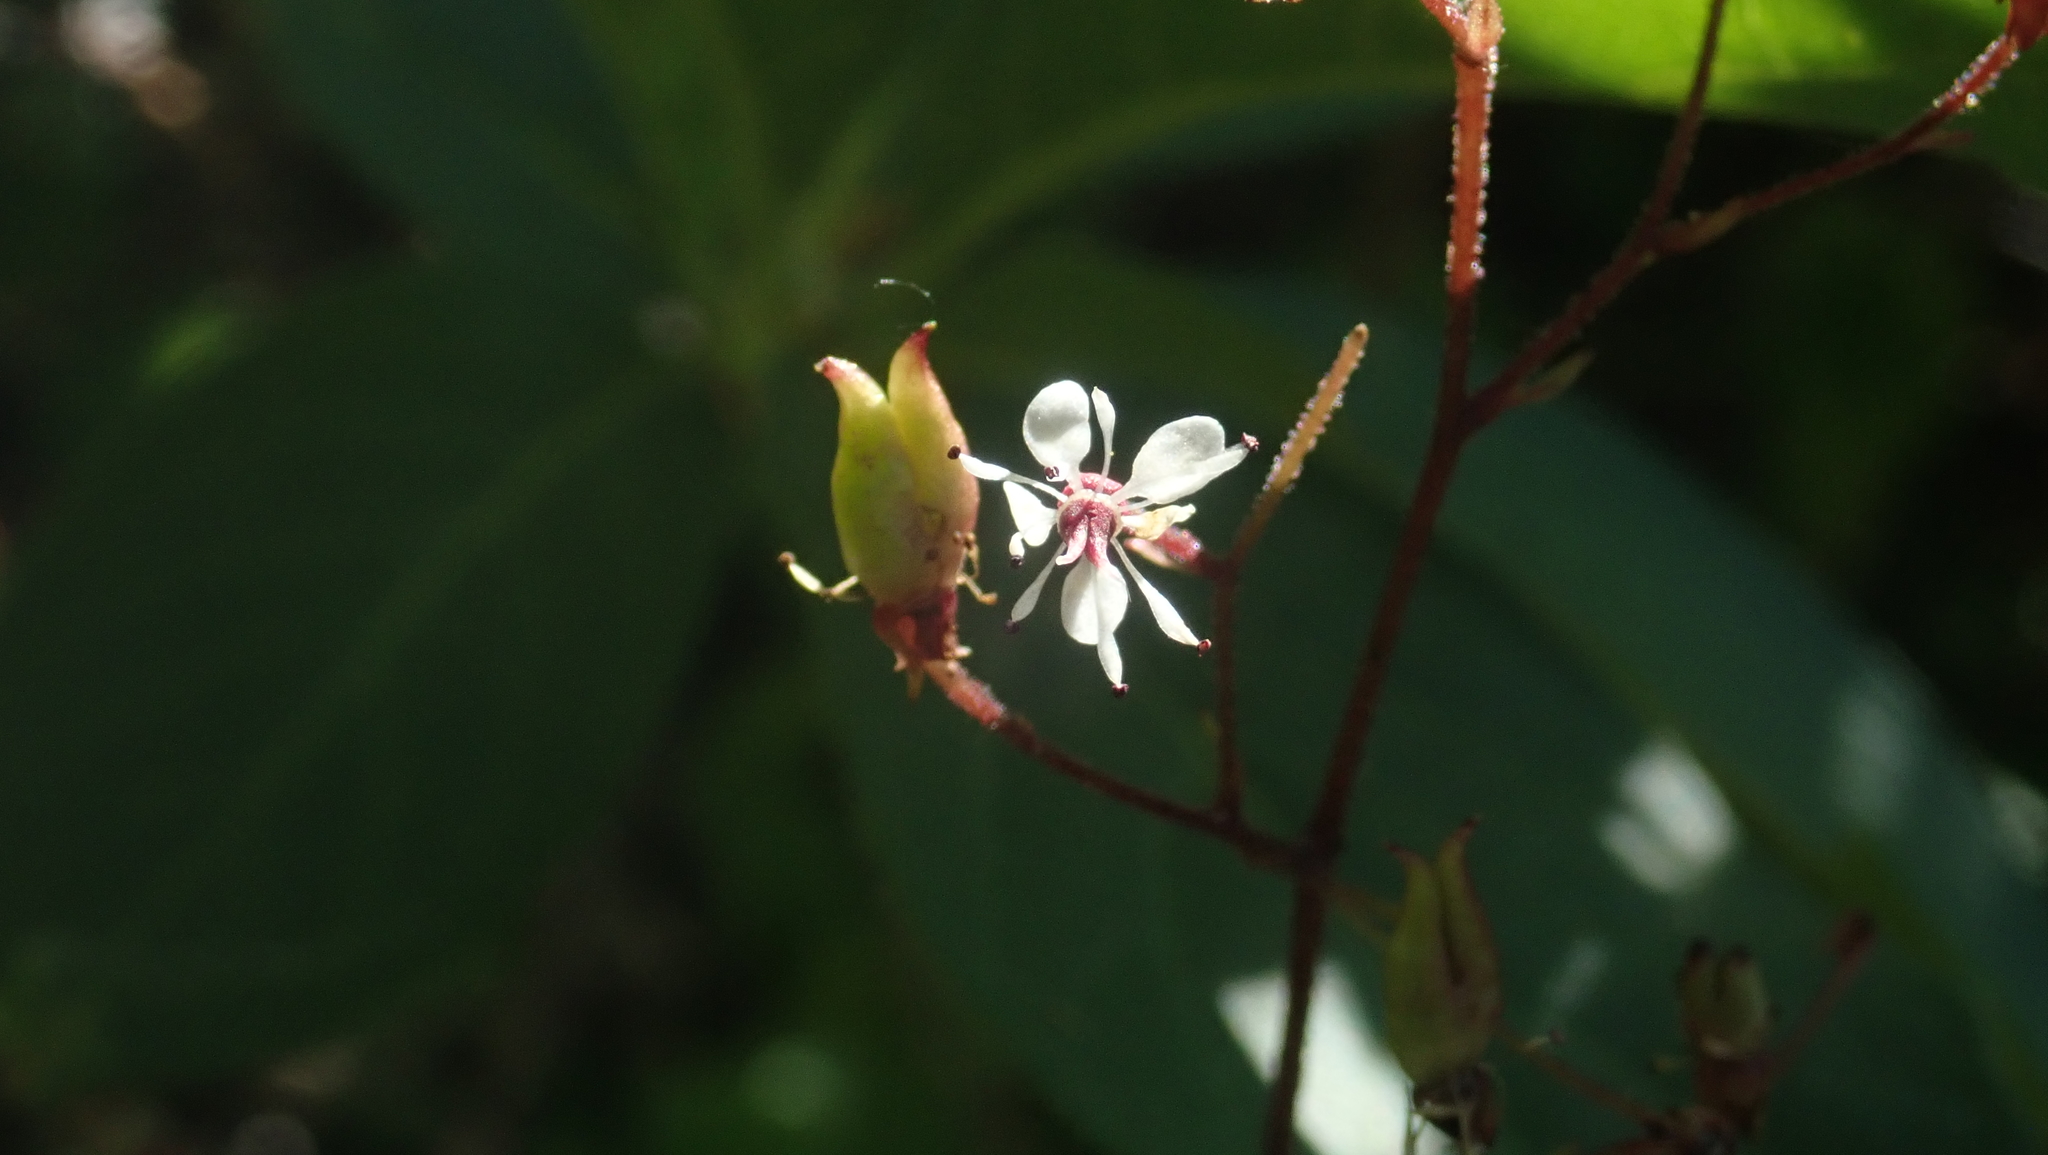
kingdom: Plantae
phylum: Tracheophyta
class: Magnoliopsida
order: Saxifragales
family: Saxifragaceae
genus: Micranthes
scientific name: Micranthes odontoloma
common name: Brook saxifrage
